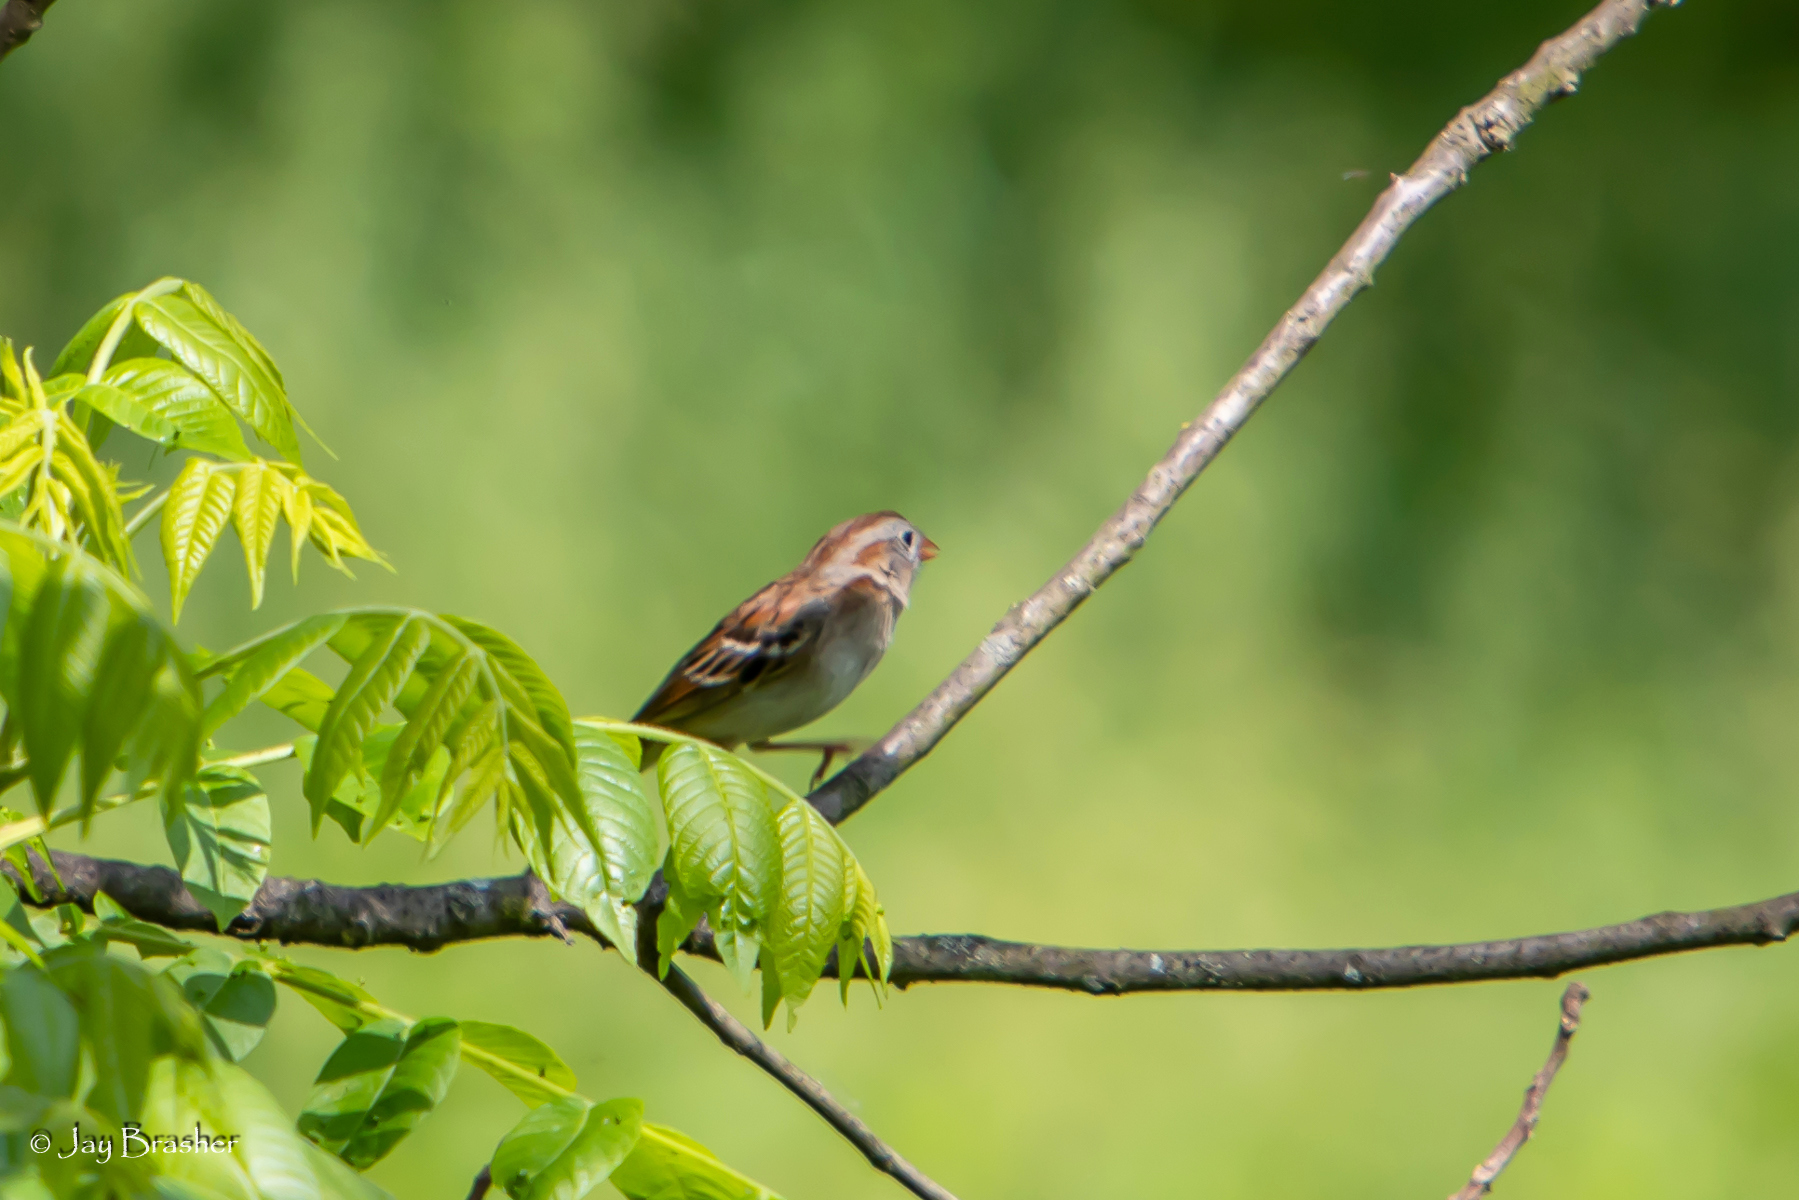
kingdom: Animalia
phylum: Chordata
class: Aves
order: Passeriformes
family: Passerellidae
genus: Spizella
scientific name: Spizella pusilla
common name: Field sparrow
